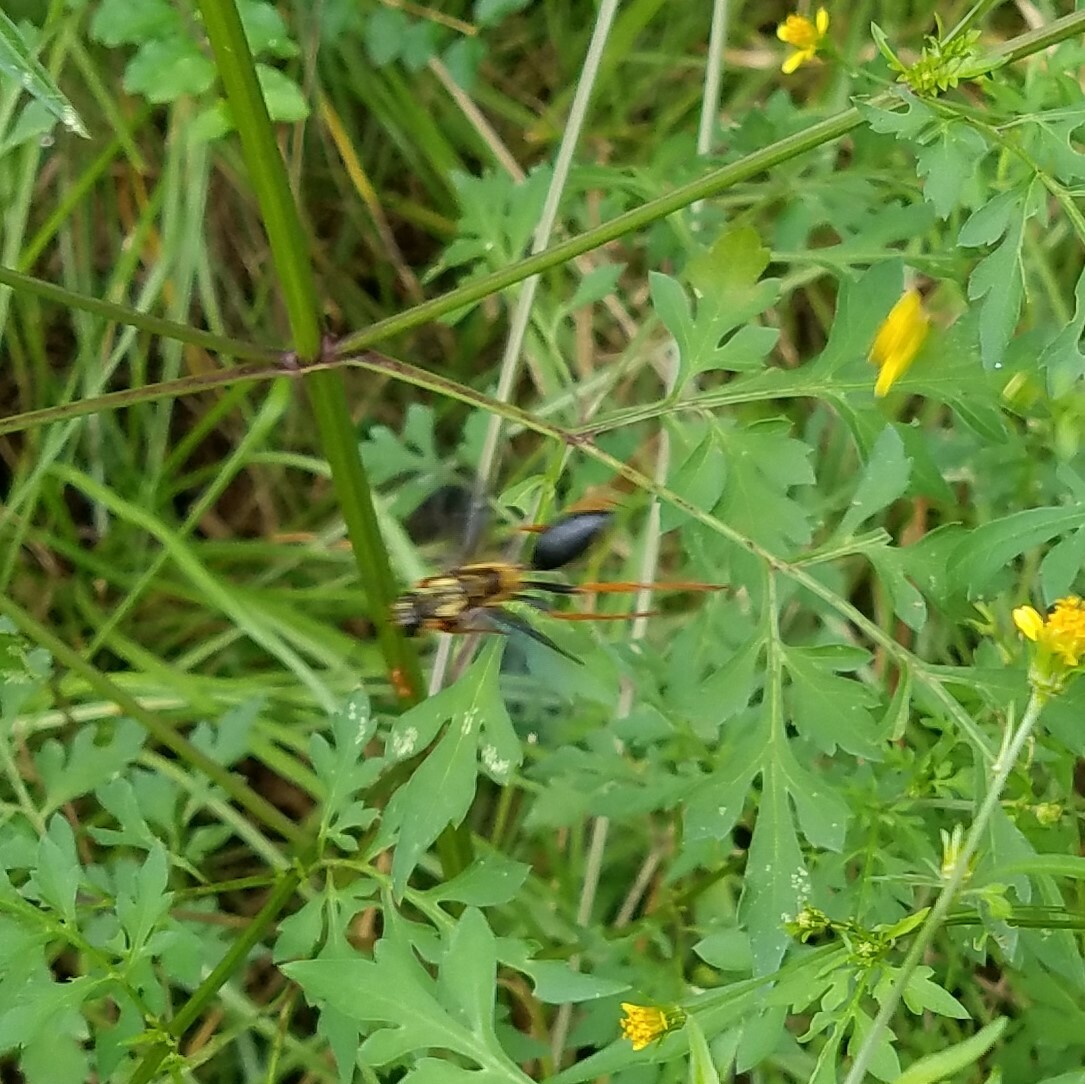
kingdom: Animalia
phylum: Arthropoda
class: Insecta
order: Hymenoptera
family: Sphecidae
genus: Sphex
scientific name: Sphex flavovestitus
